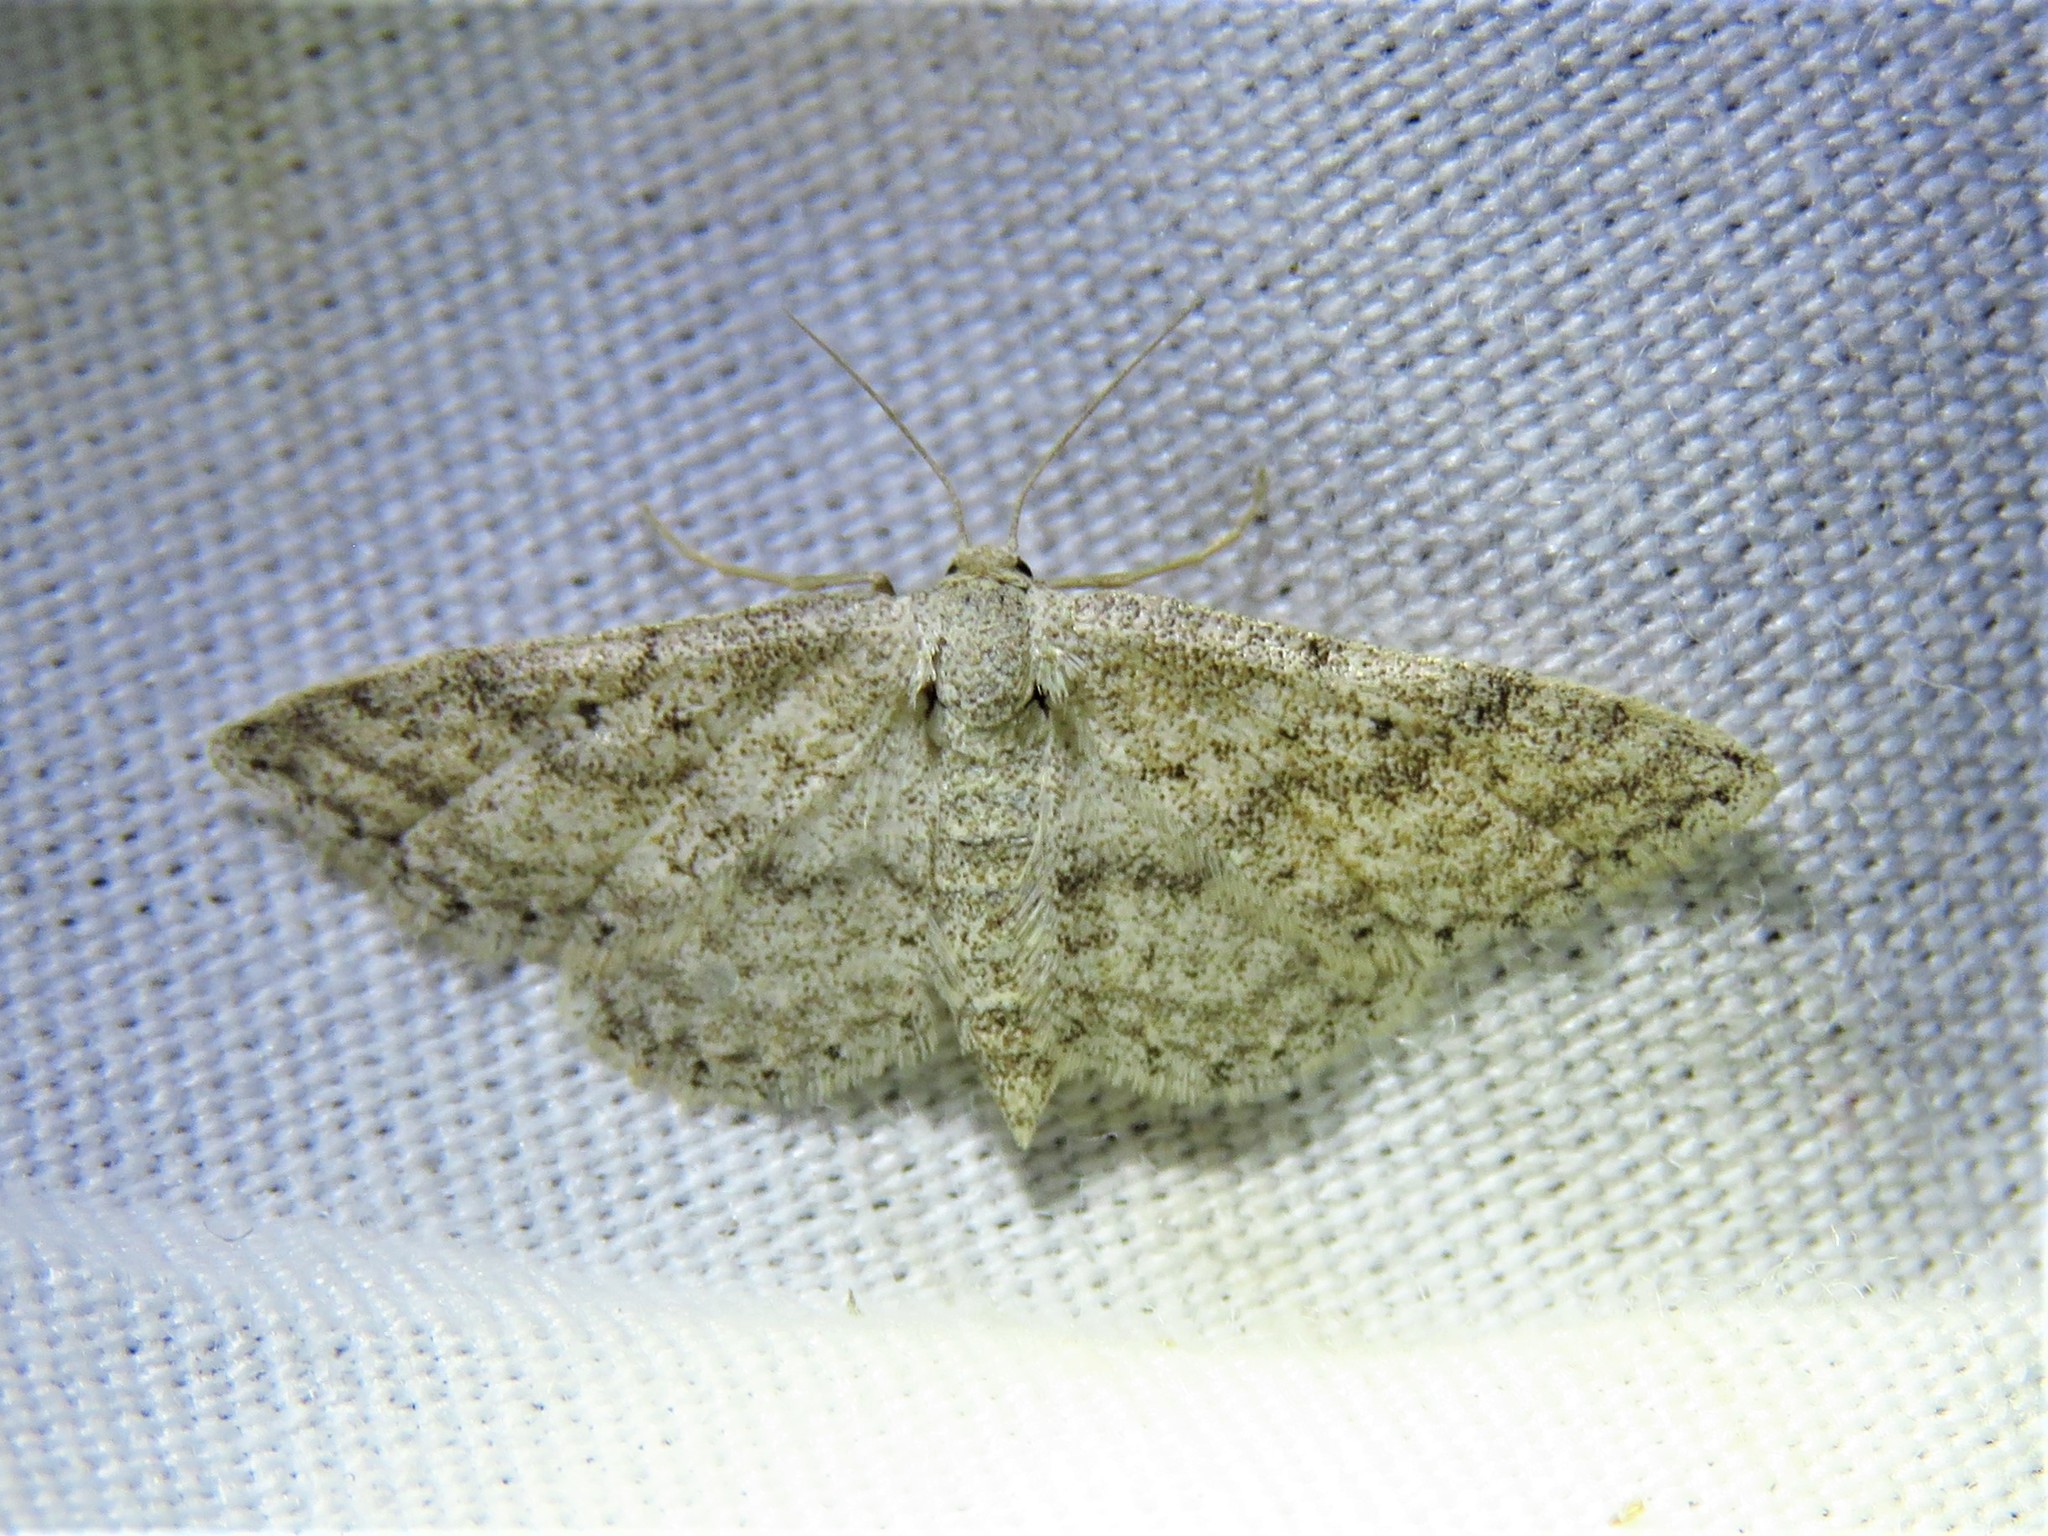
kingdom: Animalia
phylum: Arthropoda
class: Insecta
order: Lepidoptera
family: Geometridae
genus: Lobocleta
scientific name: Lobocleta ossularia
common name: Drab brown wave
